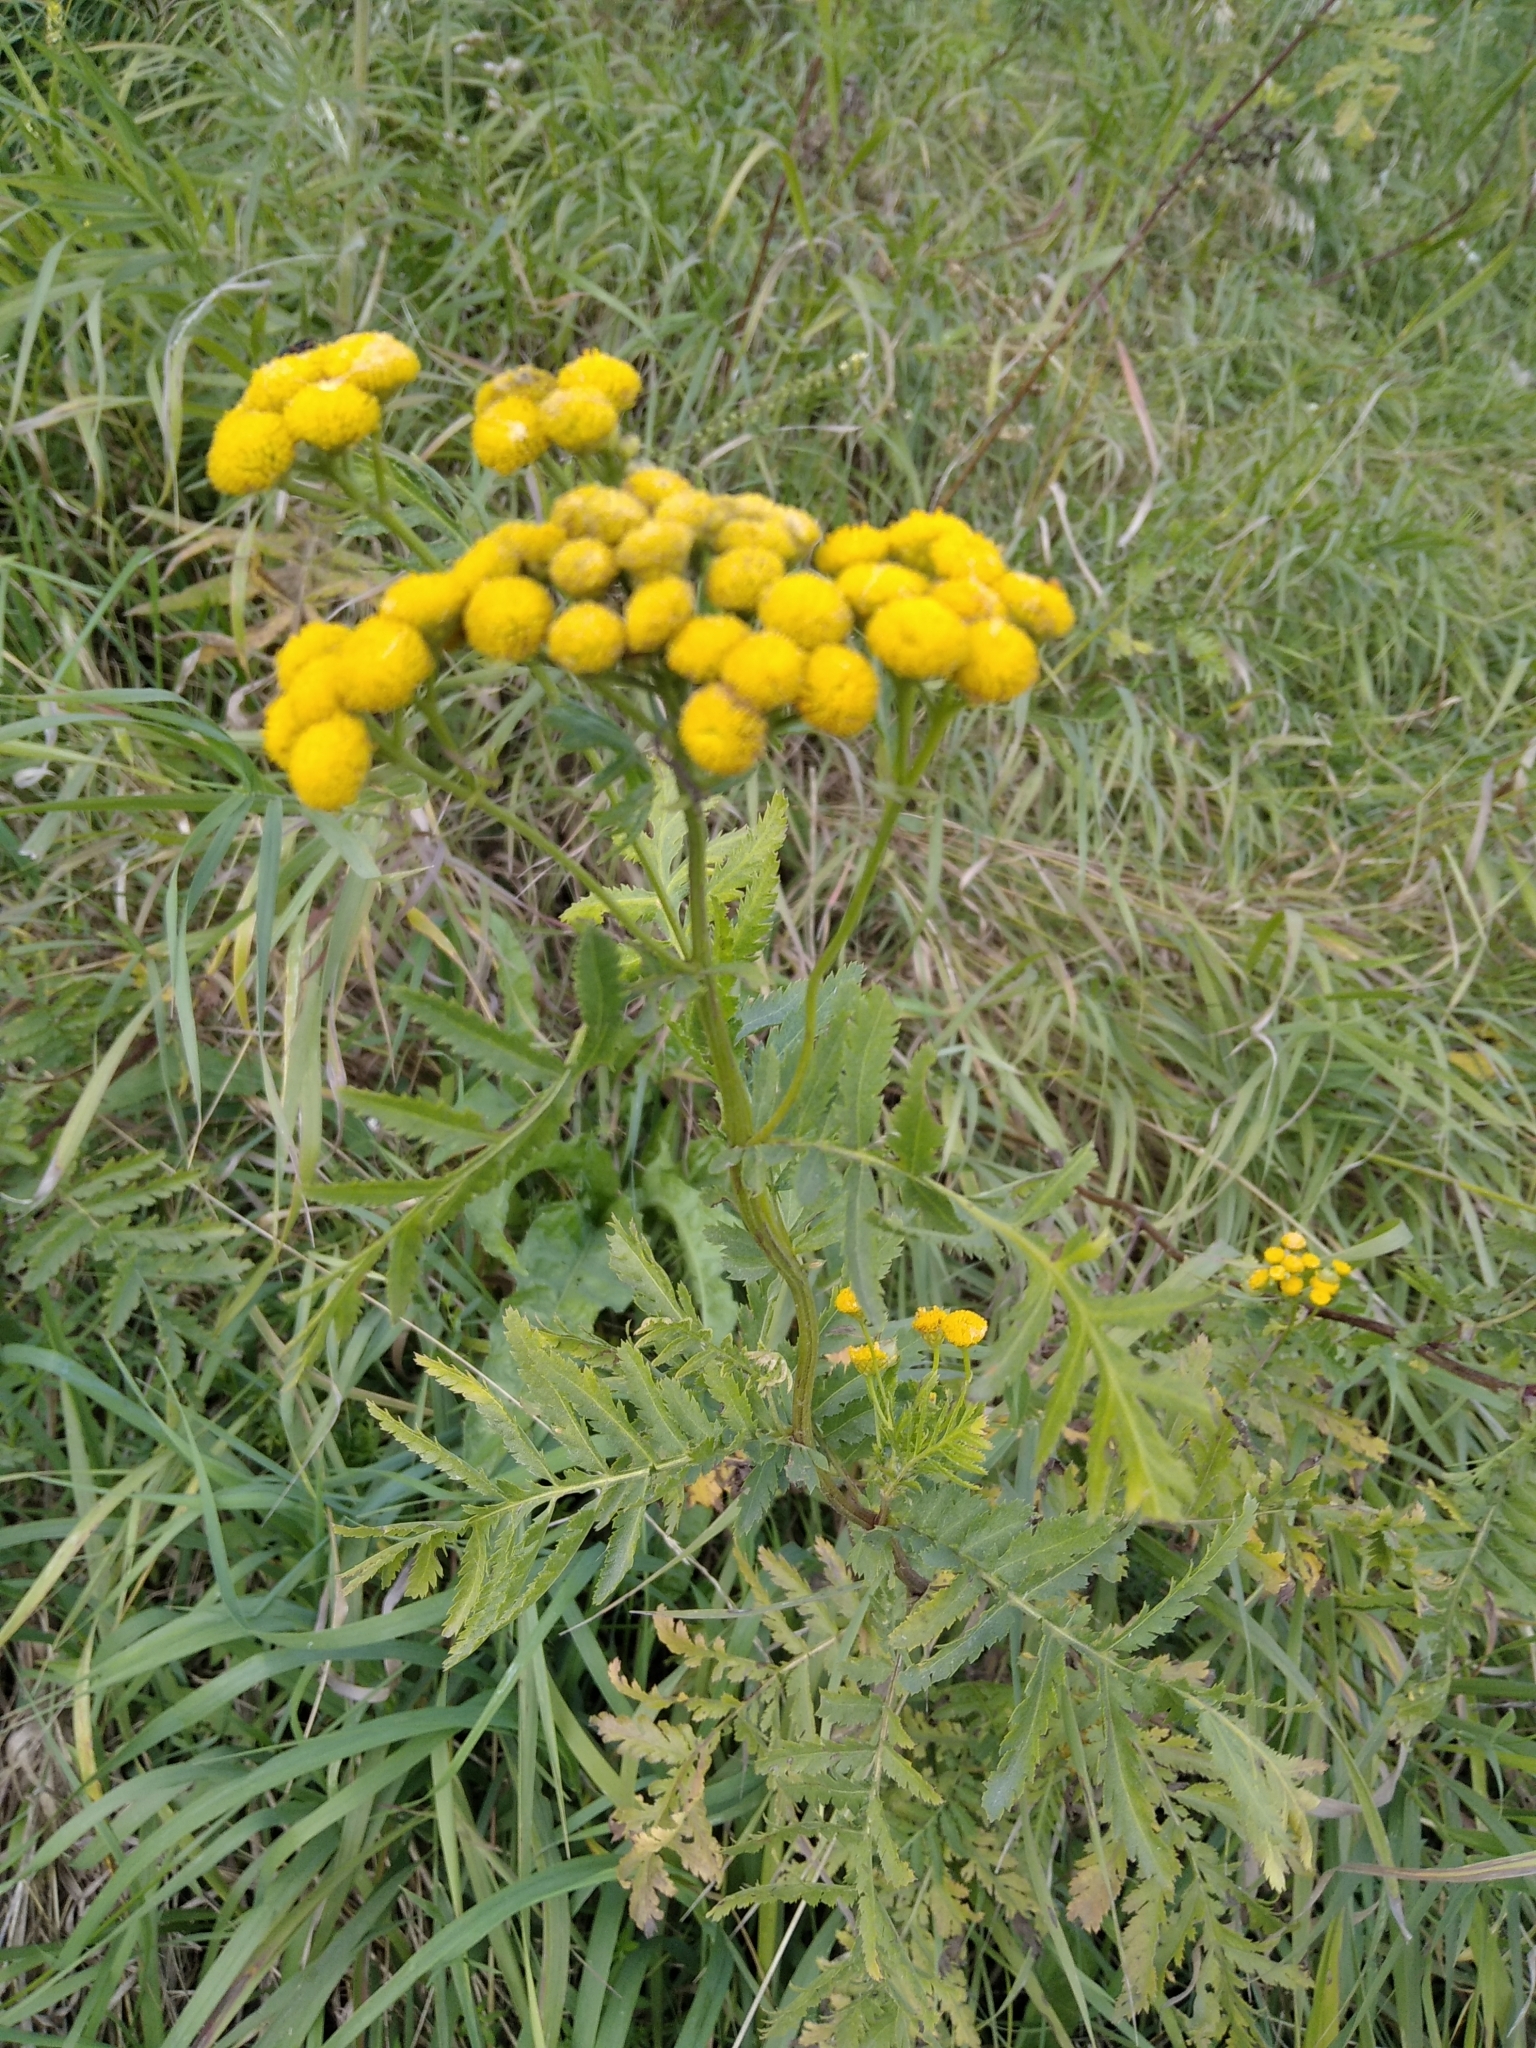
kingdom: Plantae
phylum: Tracheophyta
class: Magnoliopsida
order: Asterales
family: Asteraceae
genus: Tanacetum
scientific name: Tanacetum vulgare
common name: Common tansy
